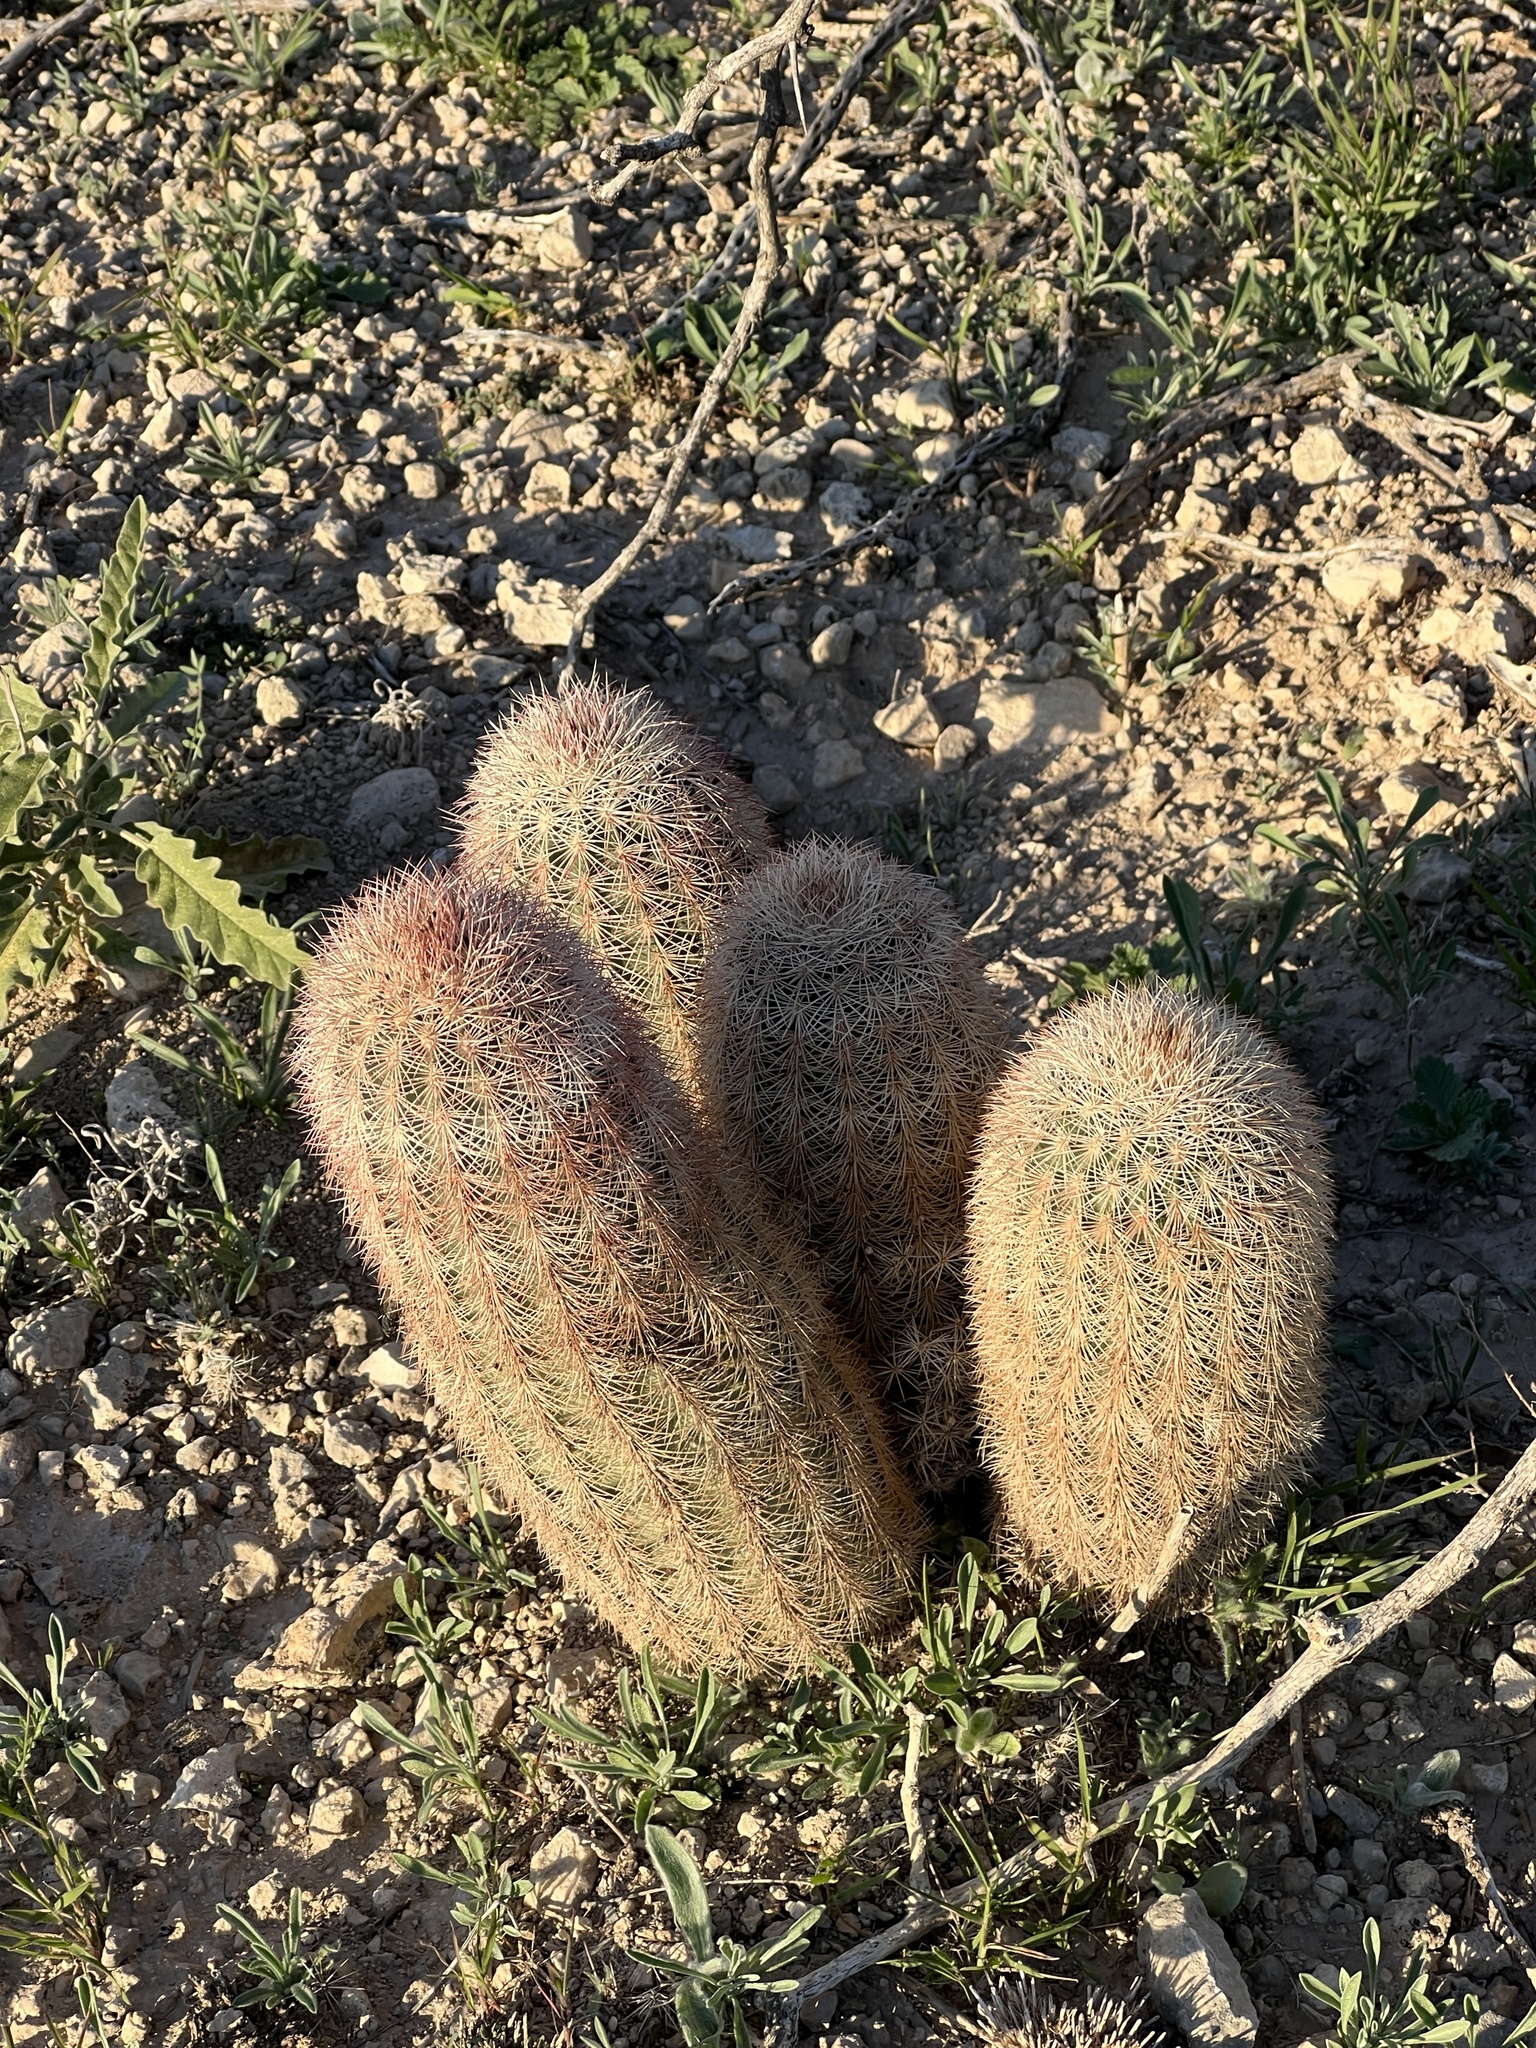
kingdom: Plantae
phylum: Tracheophyta
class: Magnoliopsida
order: Caryophyllales
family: Cactaceae
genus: Echinocereus
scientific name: Echinocereus dasyacanthus
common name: Spiny hedgehog cactus
